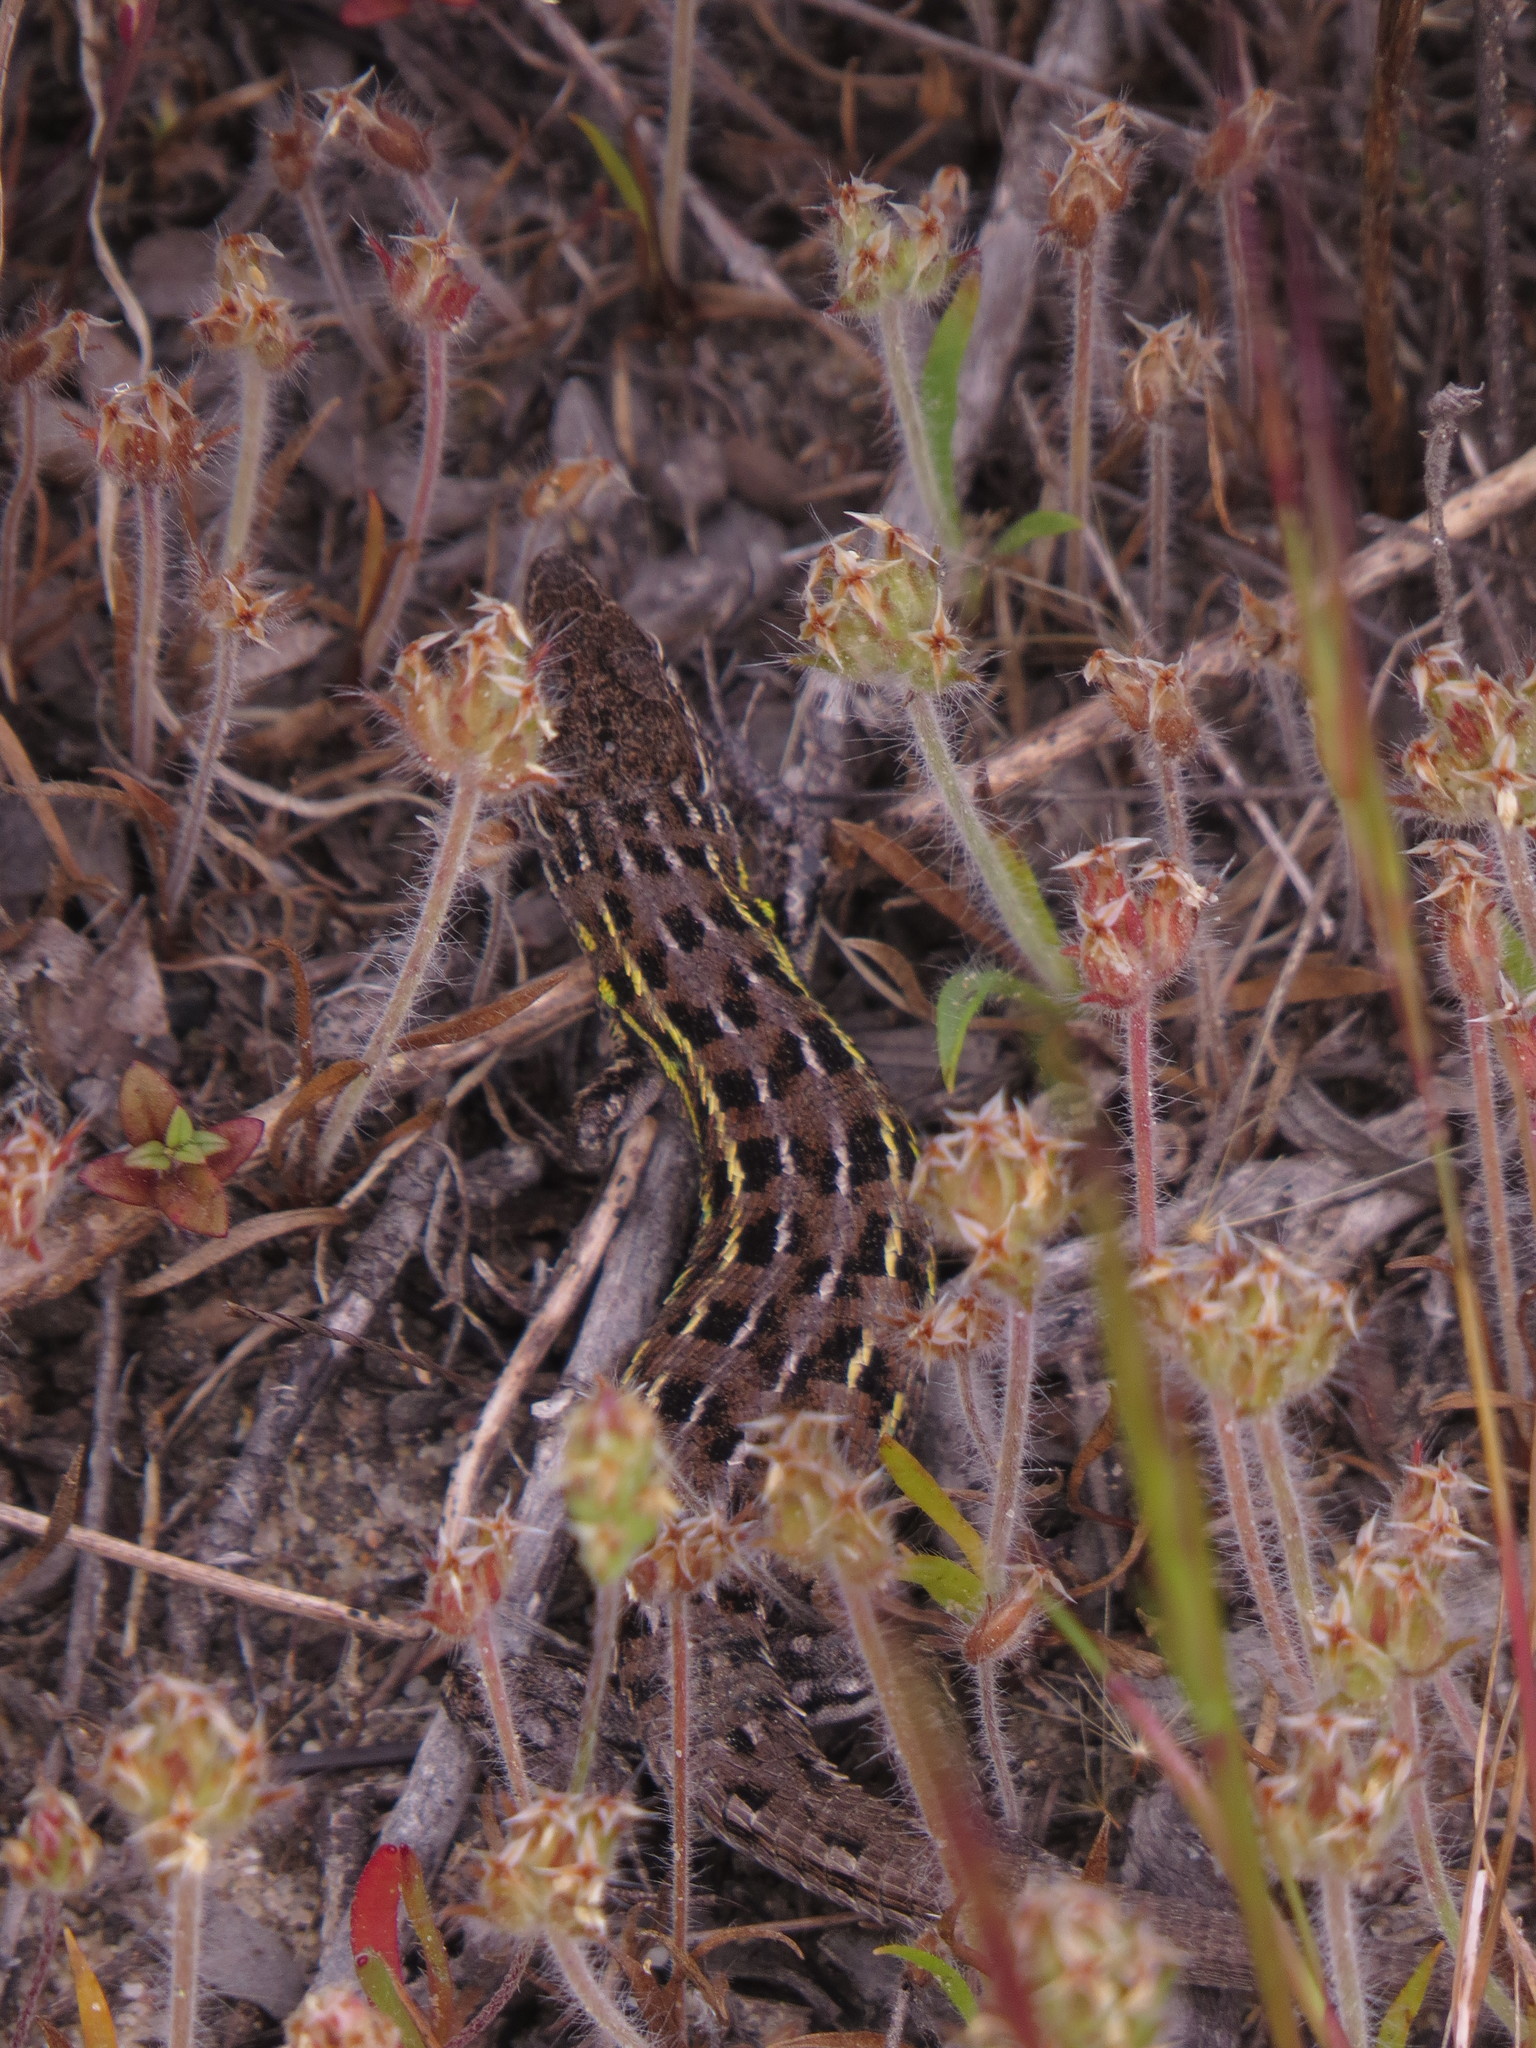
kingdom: Animalia
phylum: Chordata
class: Squamata
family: Lacertidae
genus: Psammodromus
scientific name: Psammodromus occidentalis
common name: Western psammodromus
